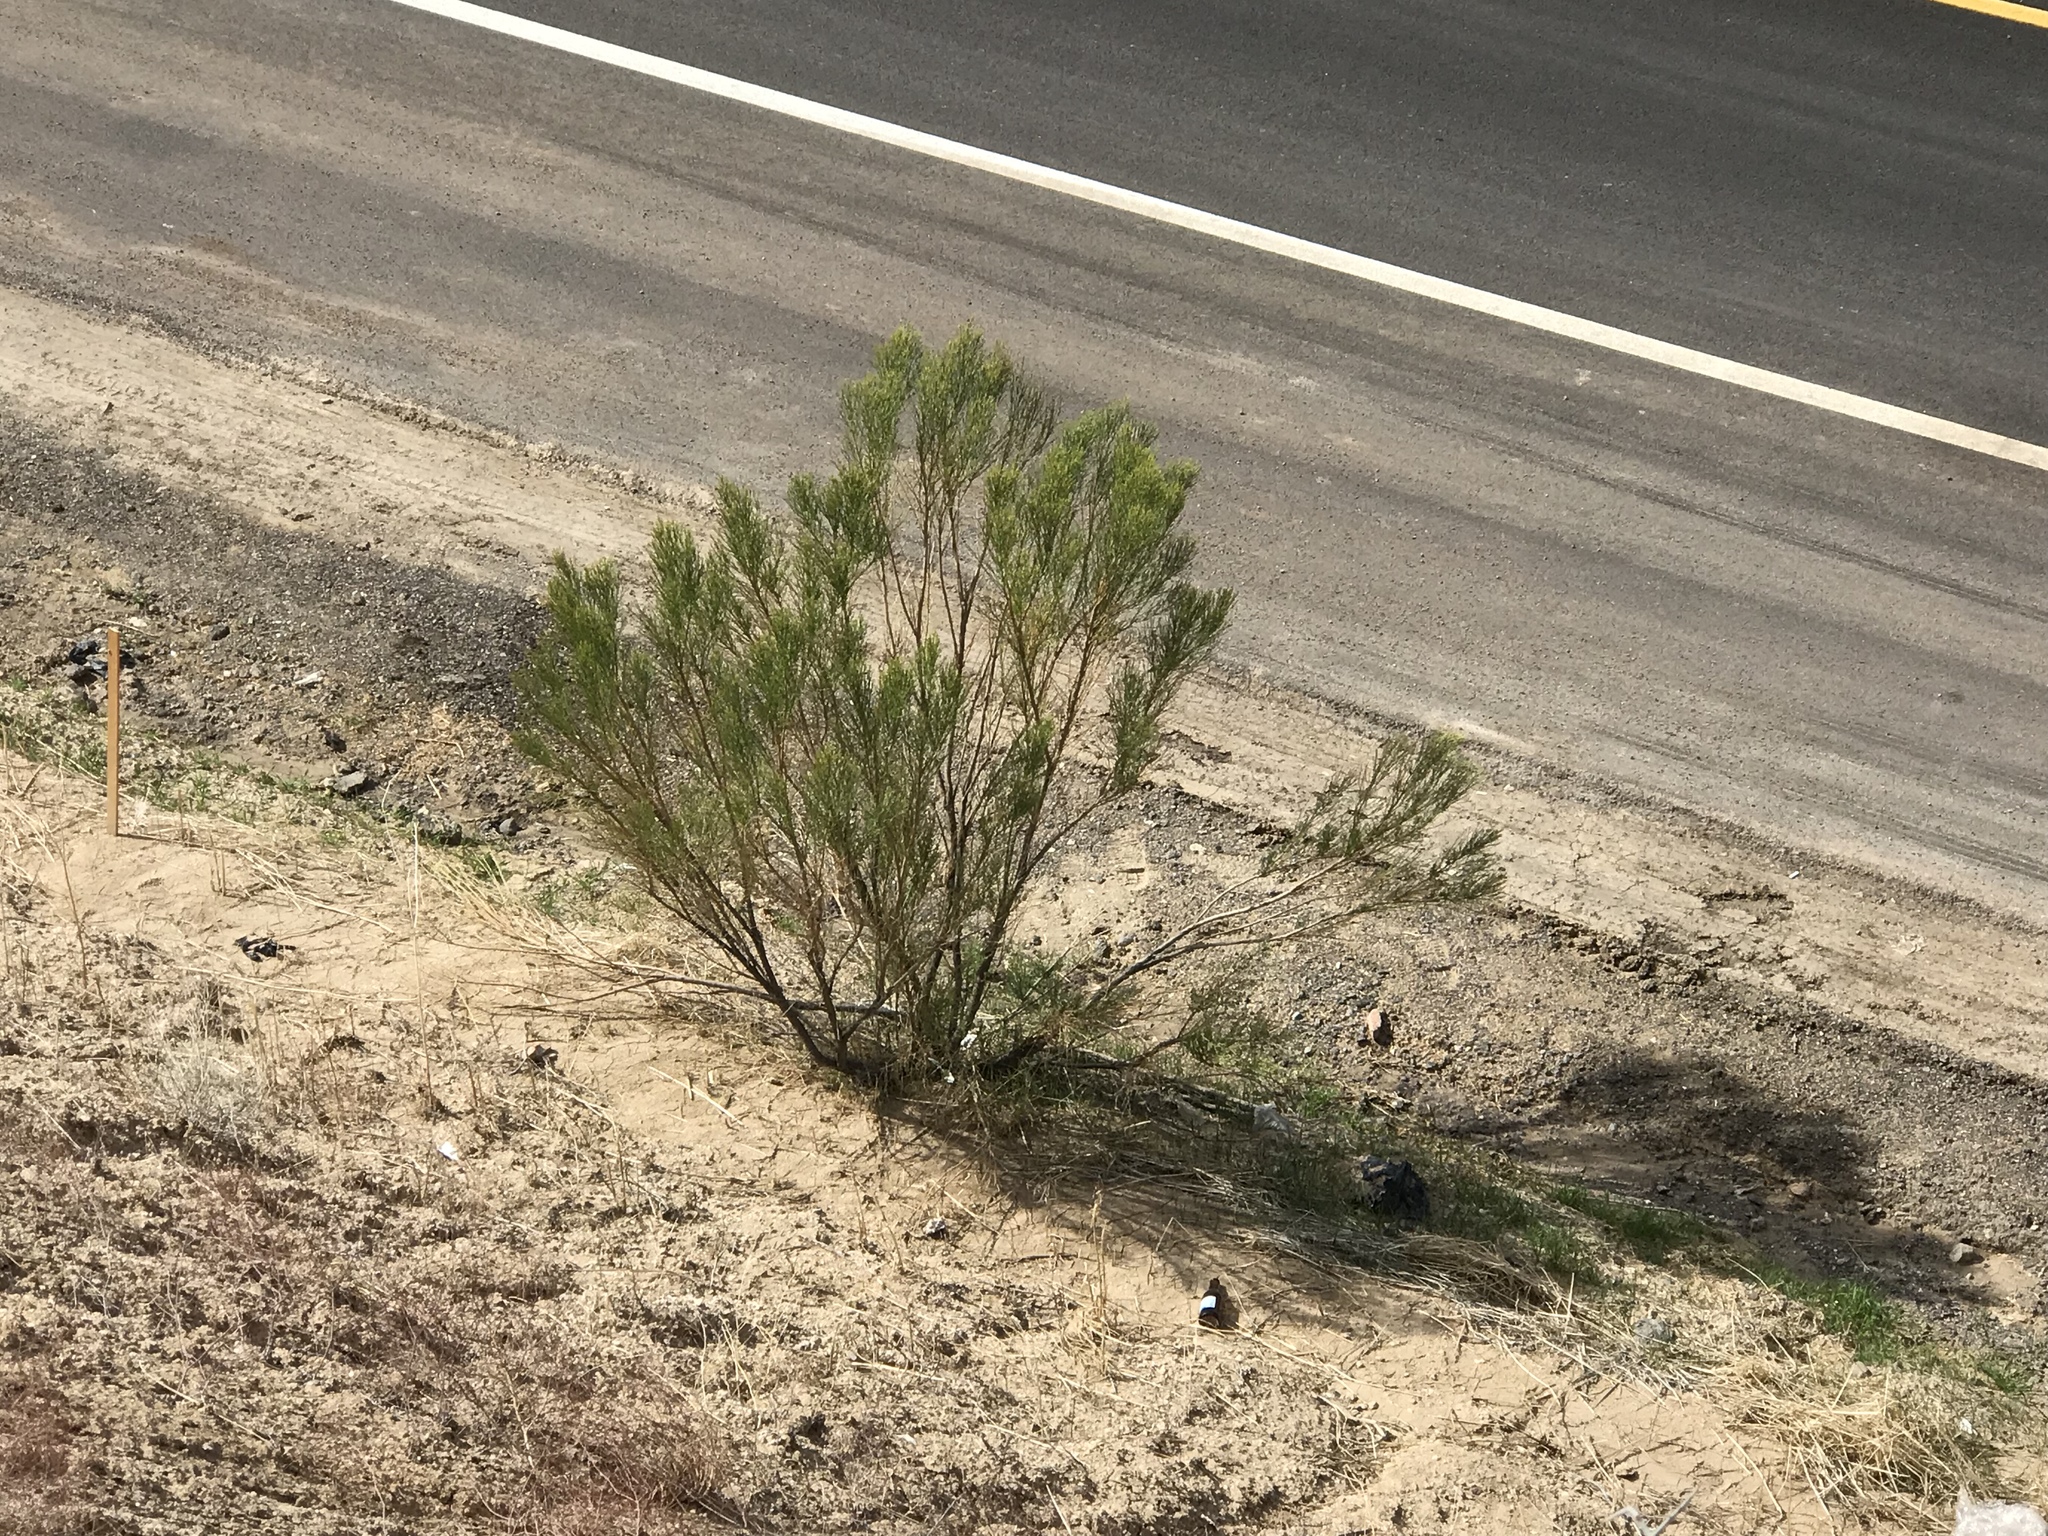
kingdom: Plantae
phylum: Tracheophyta
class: Magnoliopsida
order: Asterales
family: Asteraceae
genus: Baccharis
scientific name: Baccharis sarothroides
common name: Desert-broom
